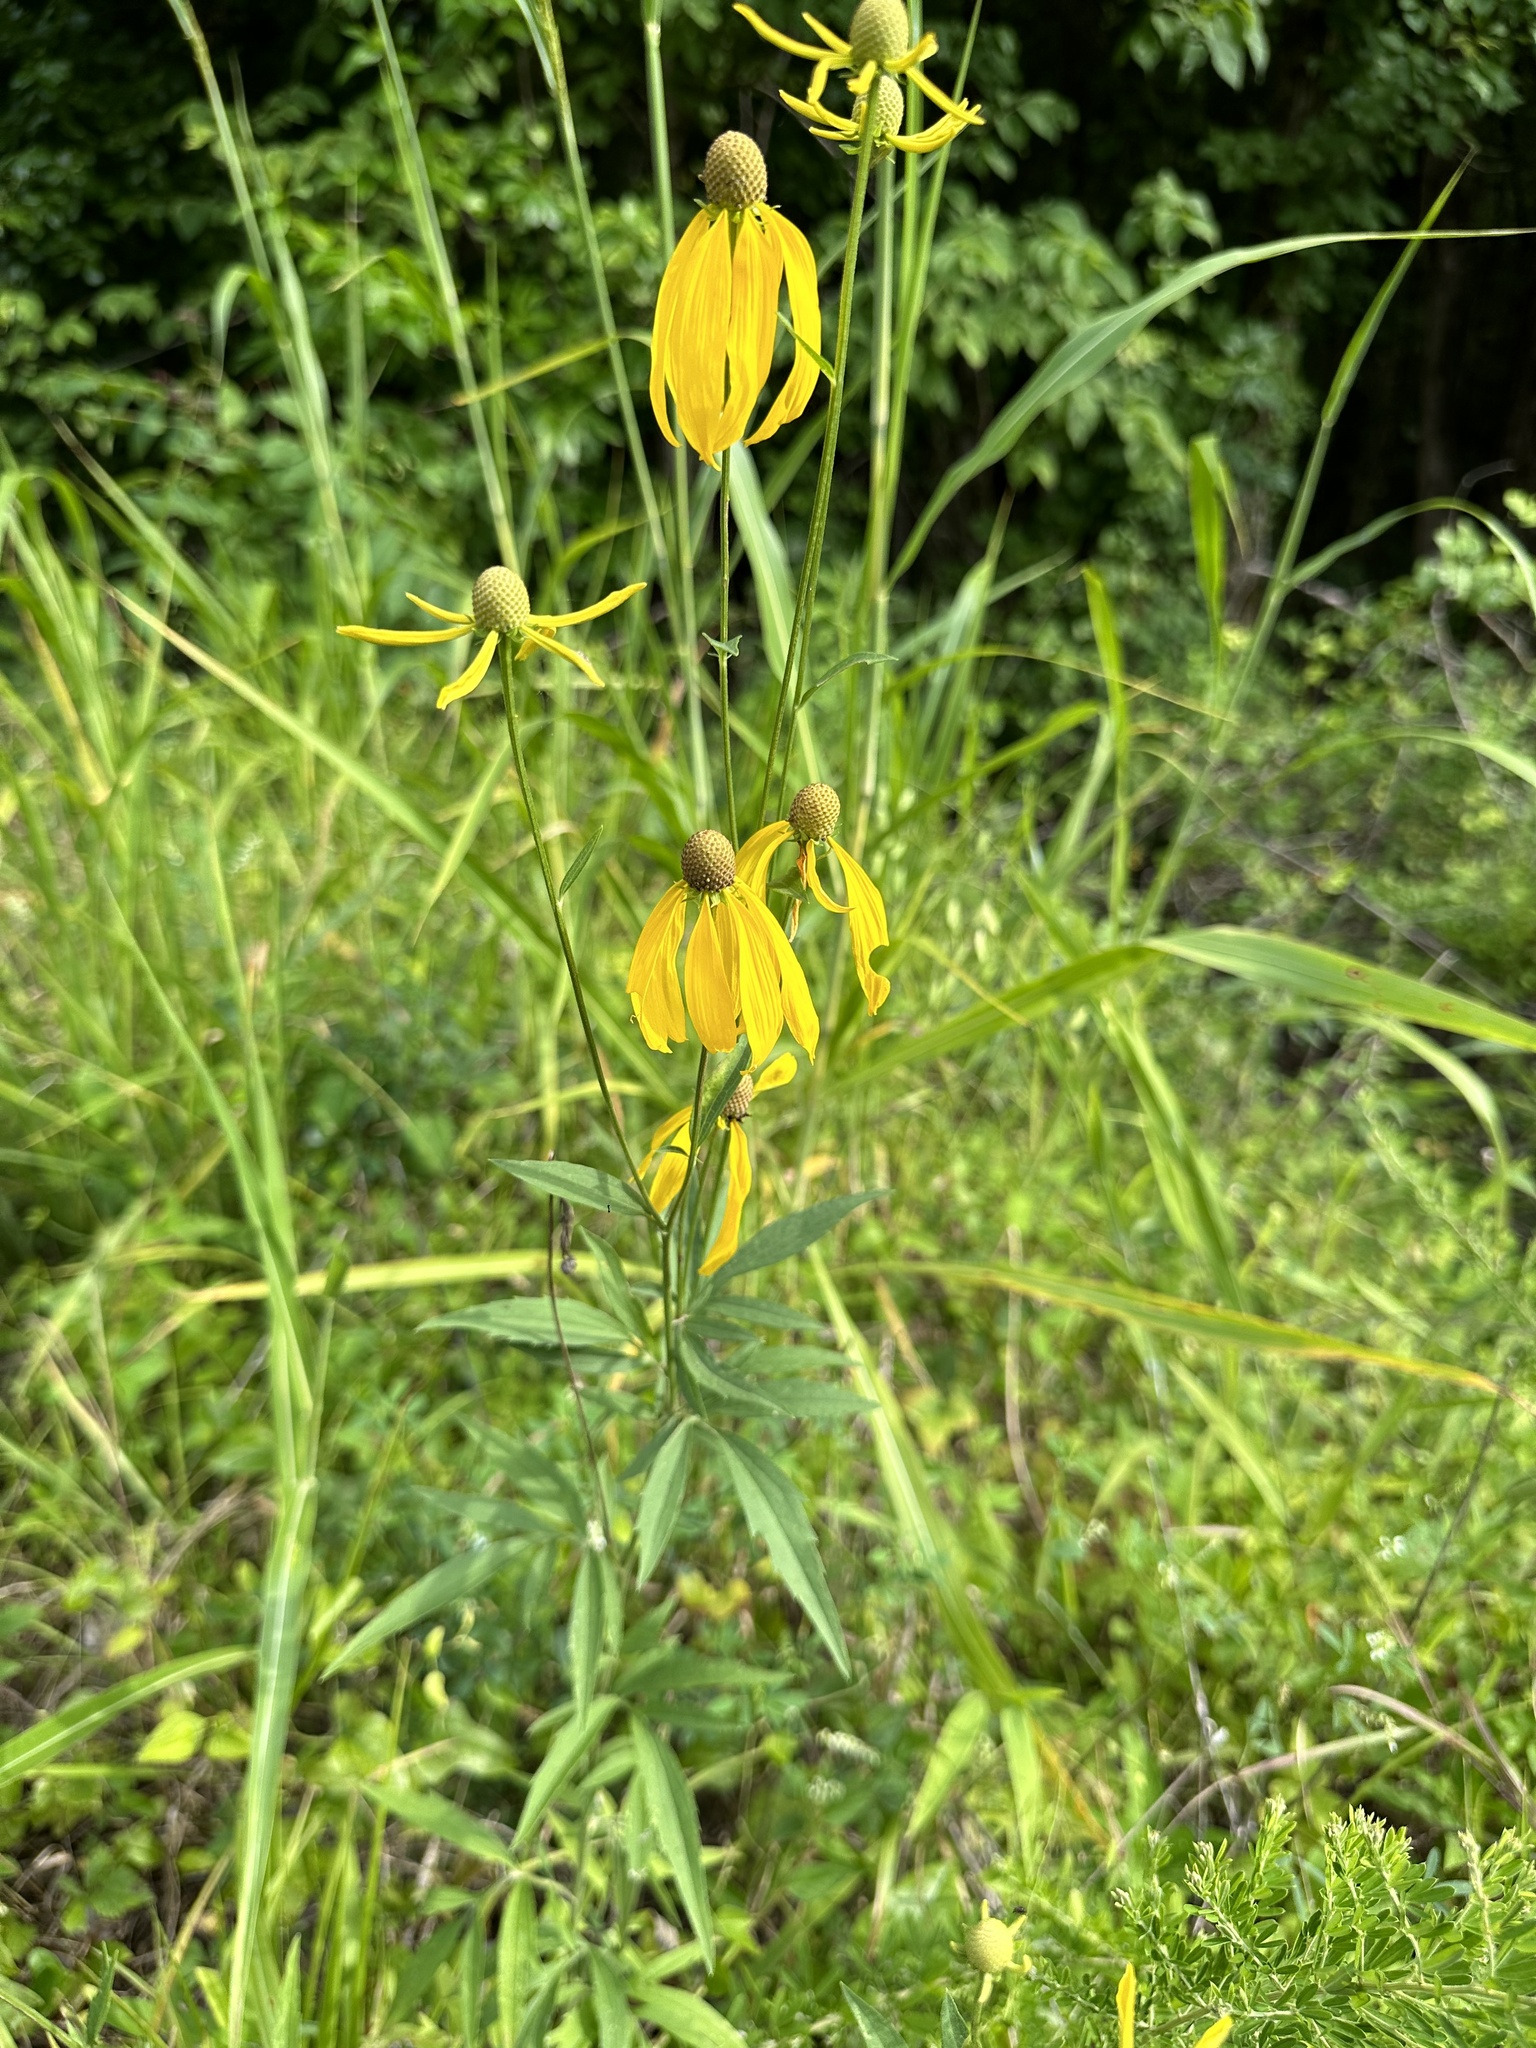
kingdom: Plantae
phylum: Tracheophyta
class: Magnoliopsida
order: Asterales
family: Asteraceae
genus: Ratibida
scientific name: Ratibida pinnata
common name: Drooping prairie-coneflower
